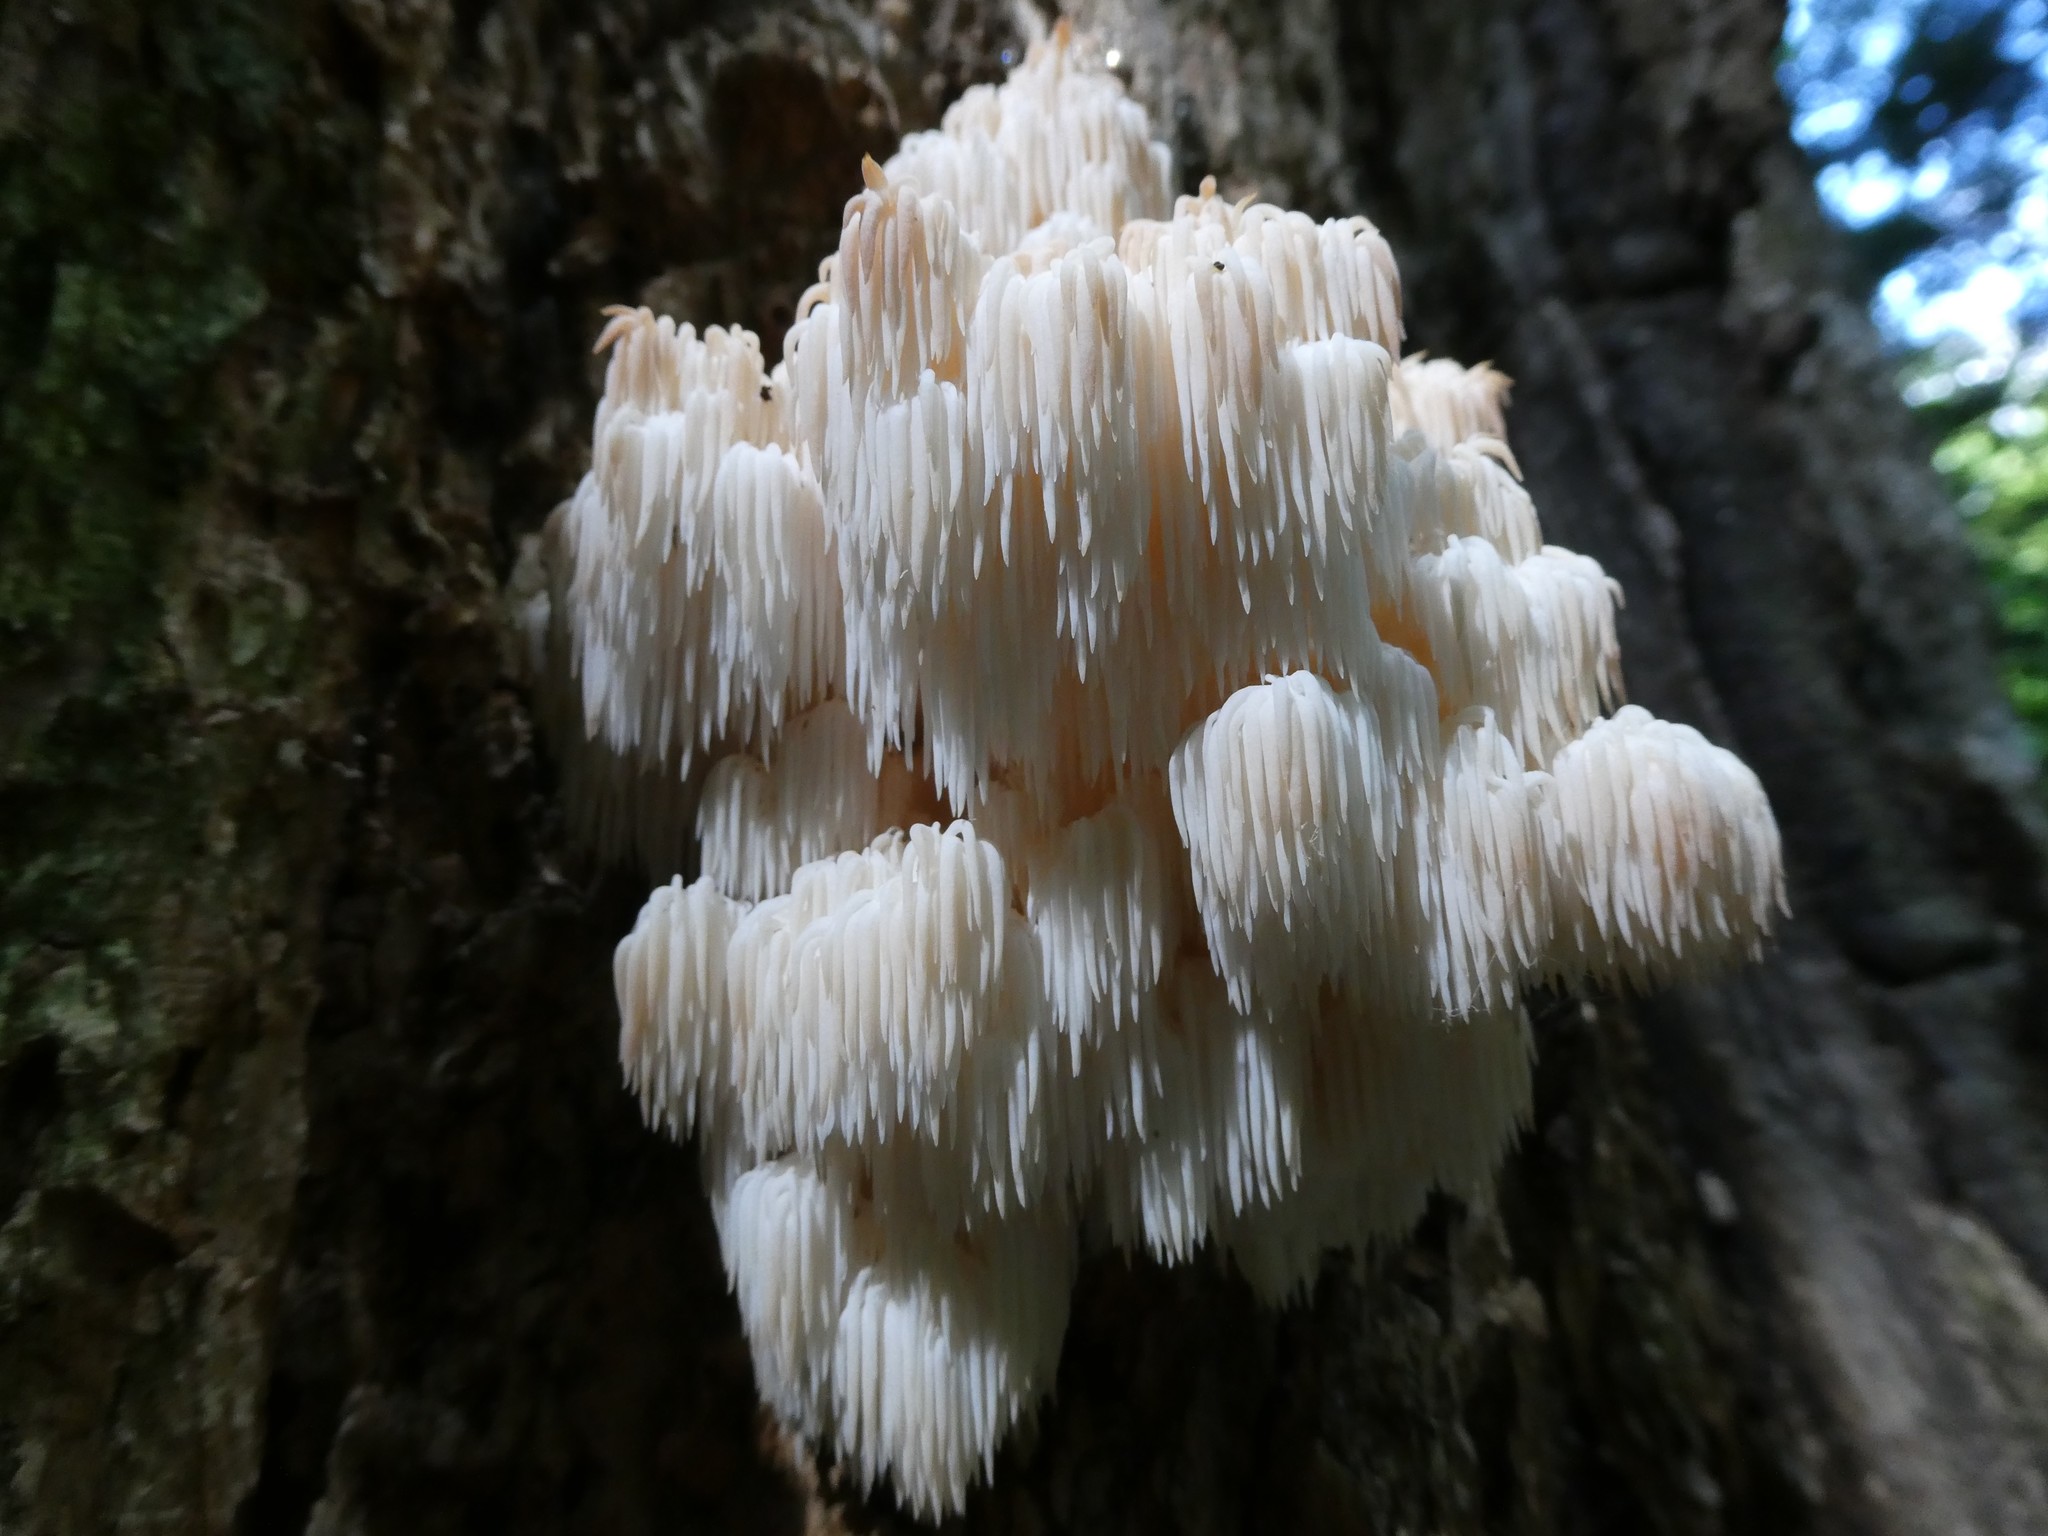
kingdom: Fungi
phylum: Basidiomycota
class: Agaricomycetes
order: Russulales
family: Hericiaceae
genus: Hericium
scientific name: Hericium americanum
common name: Bear's head tooth
